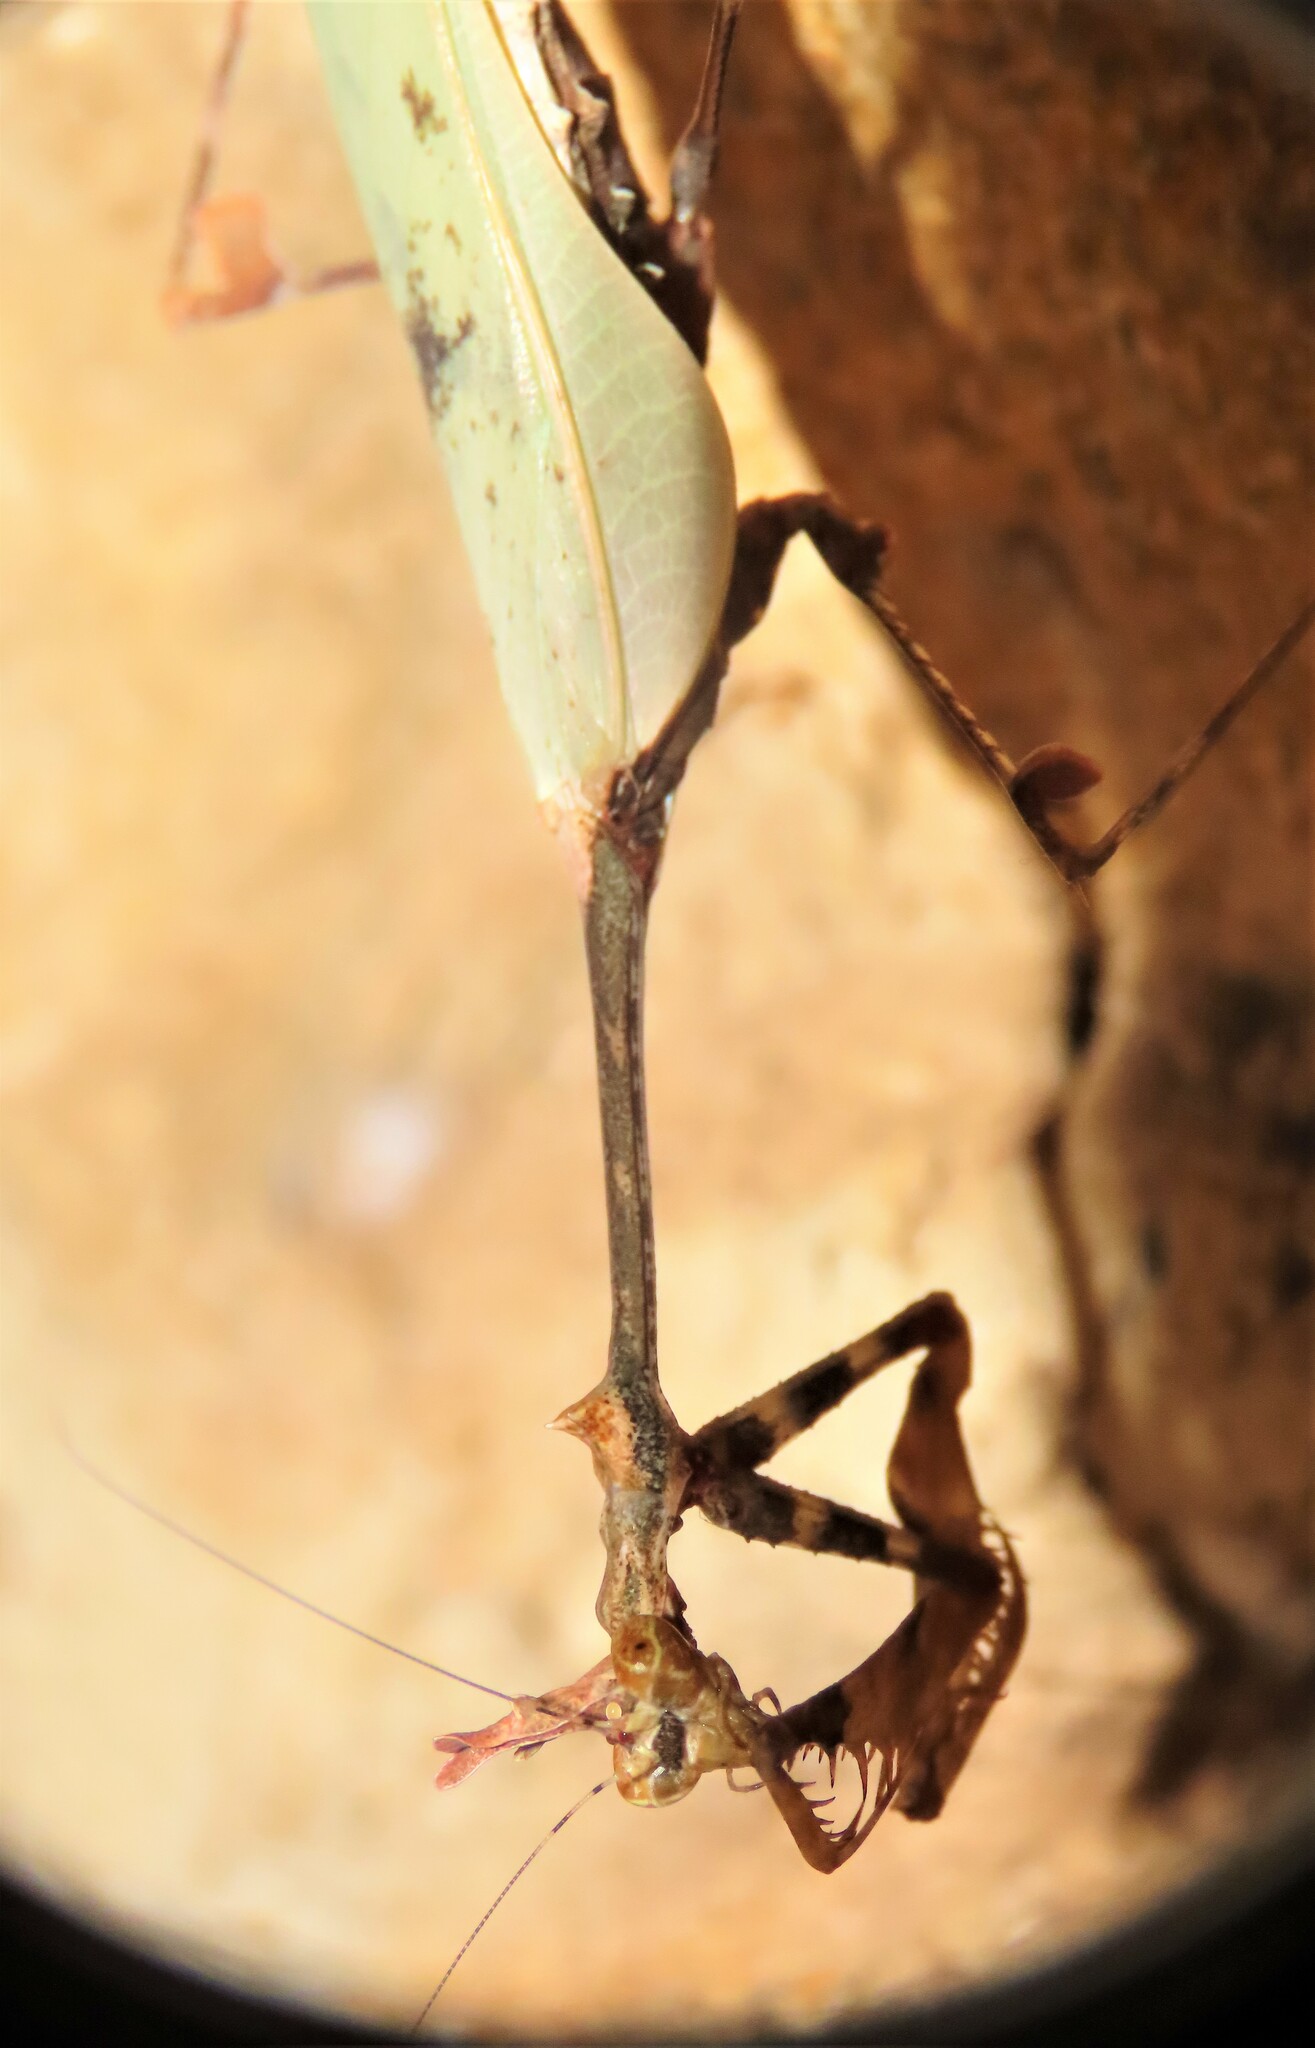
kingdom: Animalia
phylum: Arthropoda
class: Insecta
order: Mantodea
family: Hymenopodidae
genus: Sibylla
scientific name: Sibylla pretiosa
